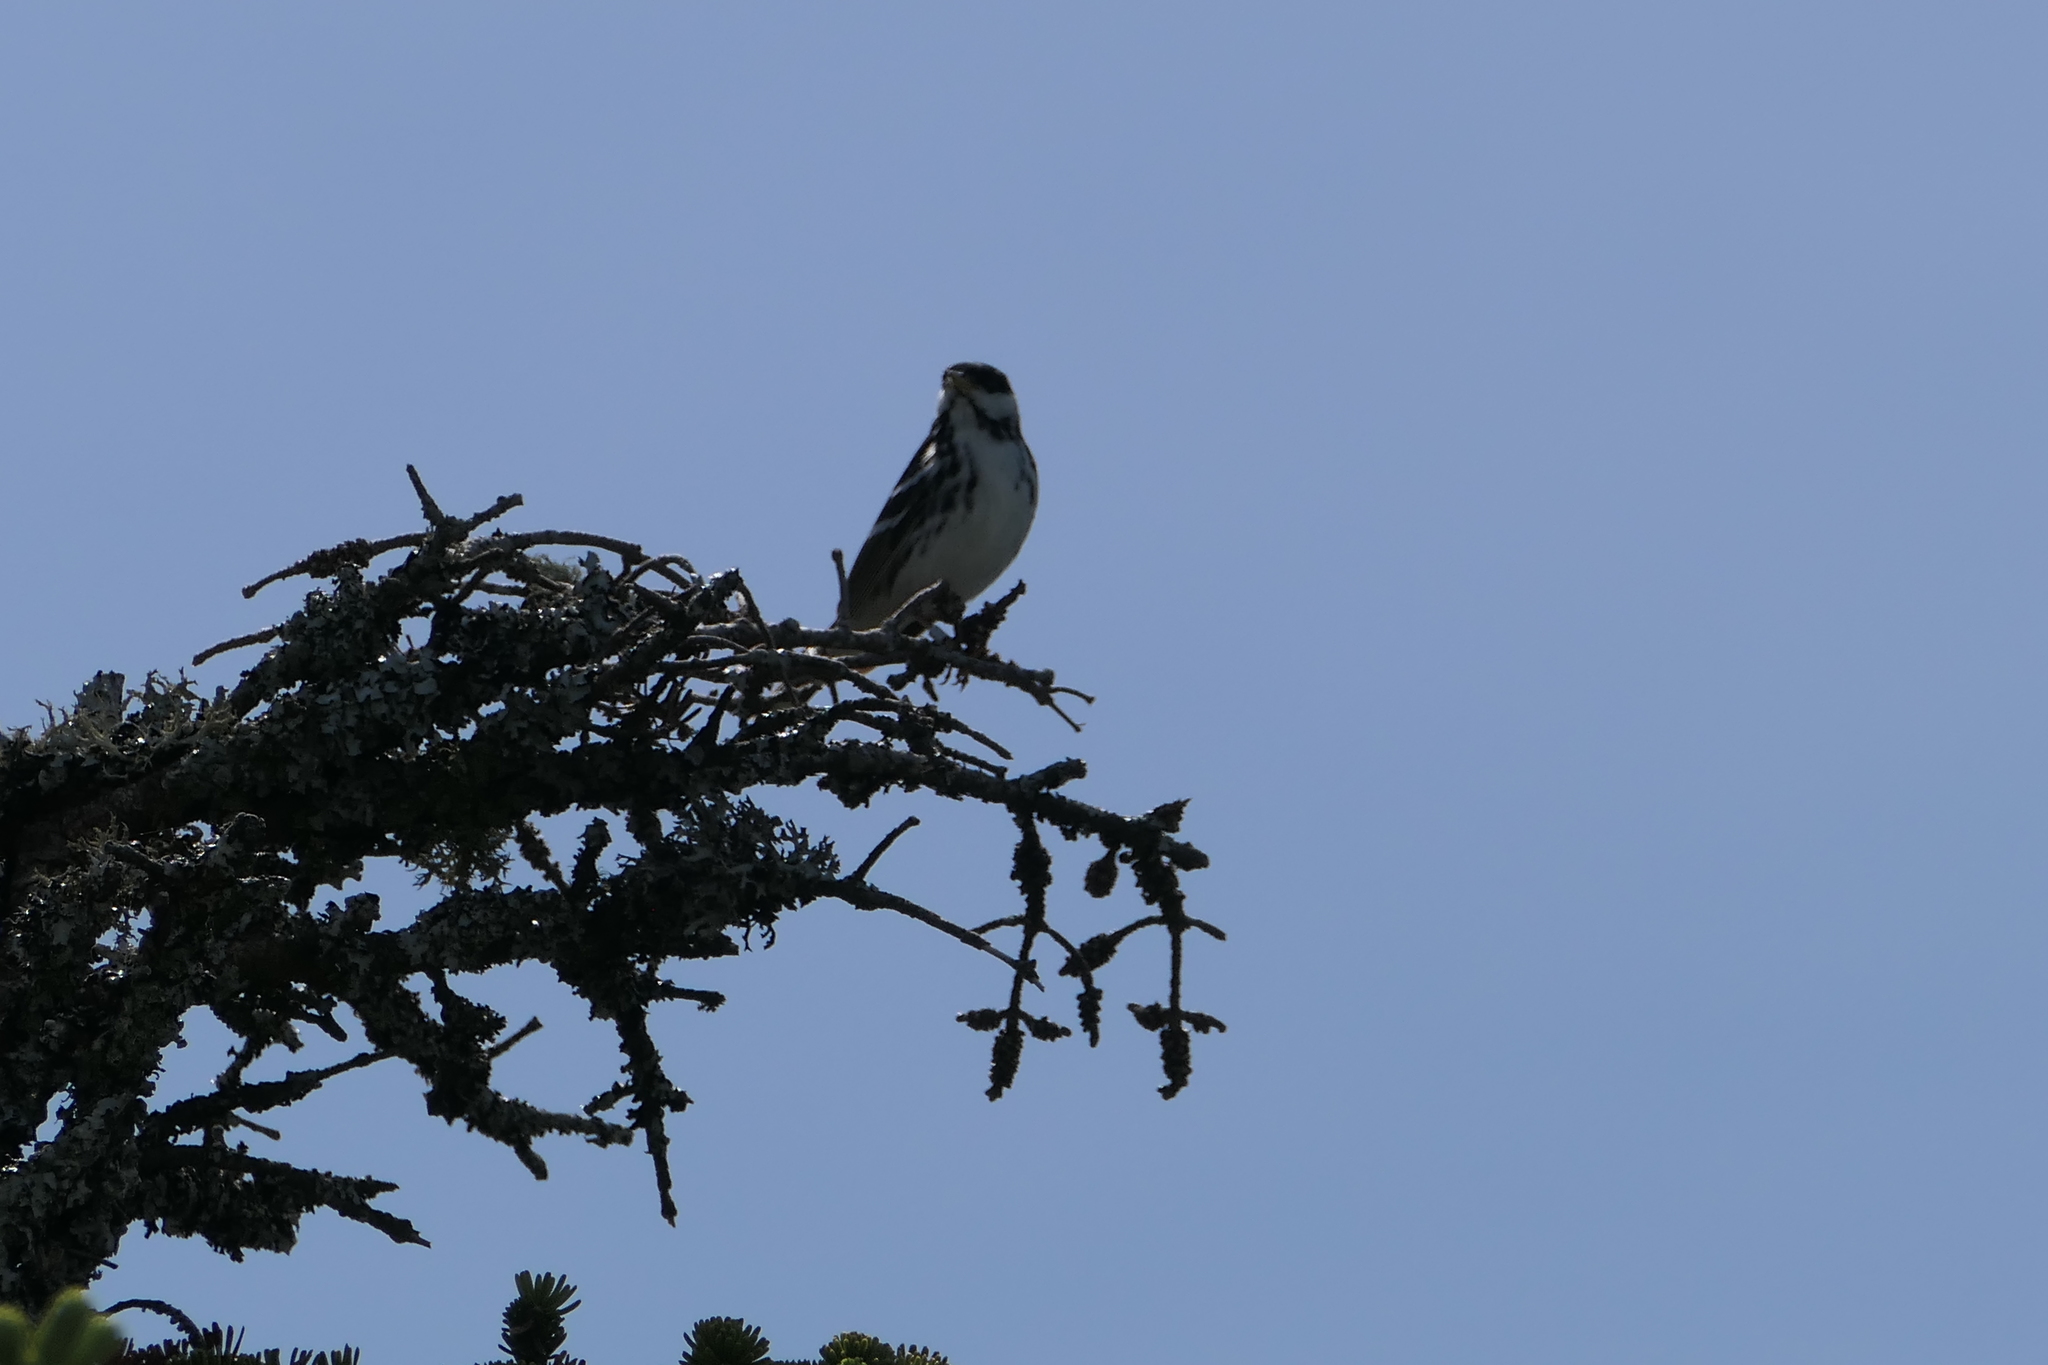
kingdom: Animalia
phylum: Chordata
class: Aves
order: Passeriformes
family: Parulidae
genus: Setophaga
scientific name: Setophaga striata
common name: Blackpoll warbler
